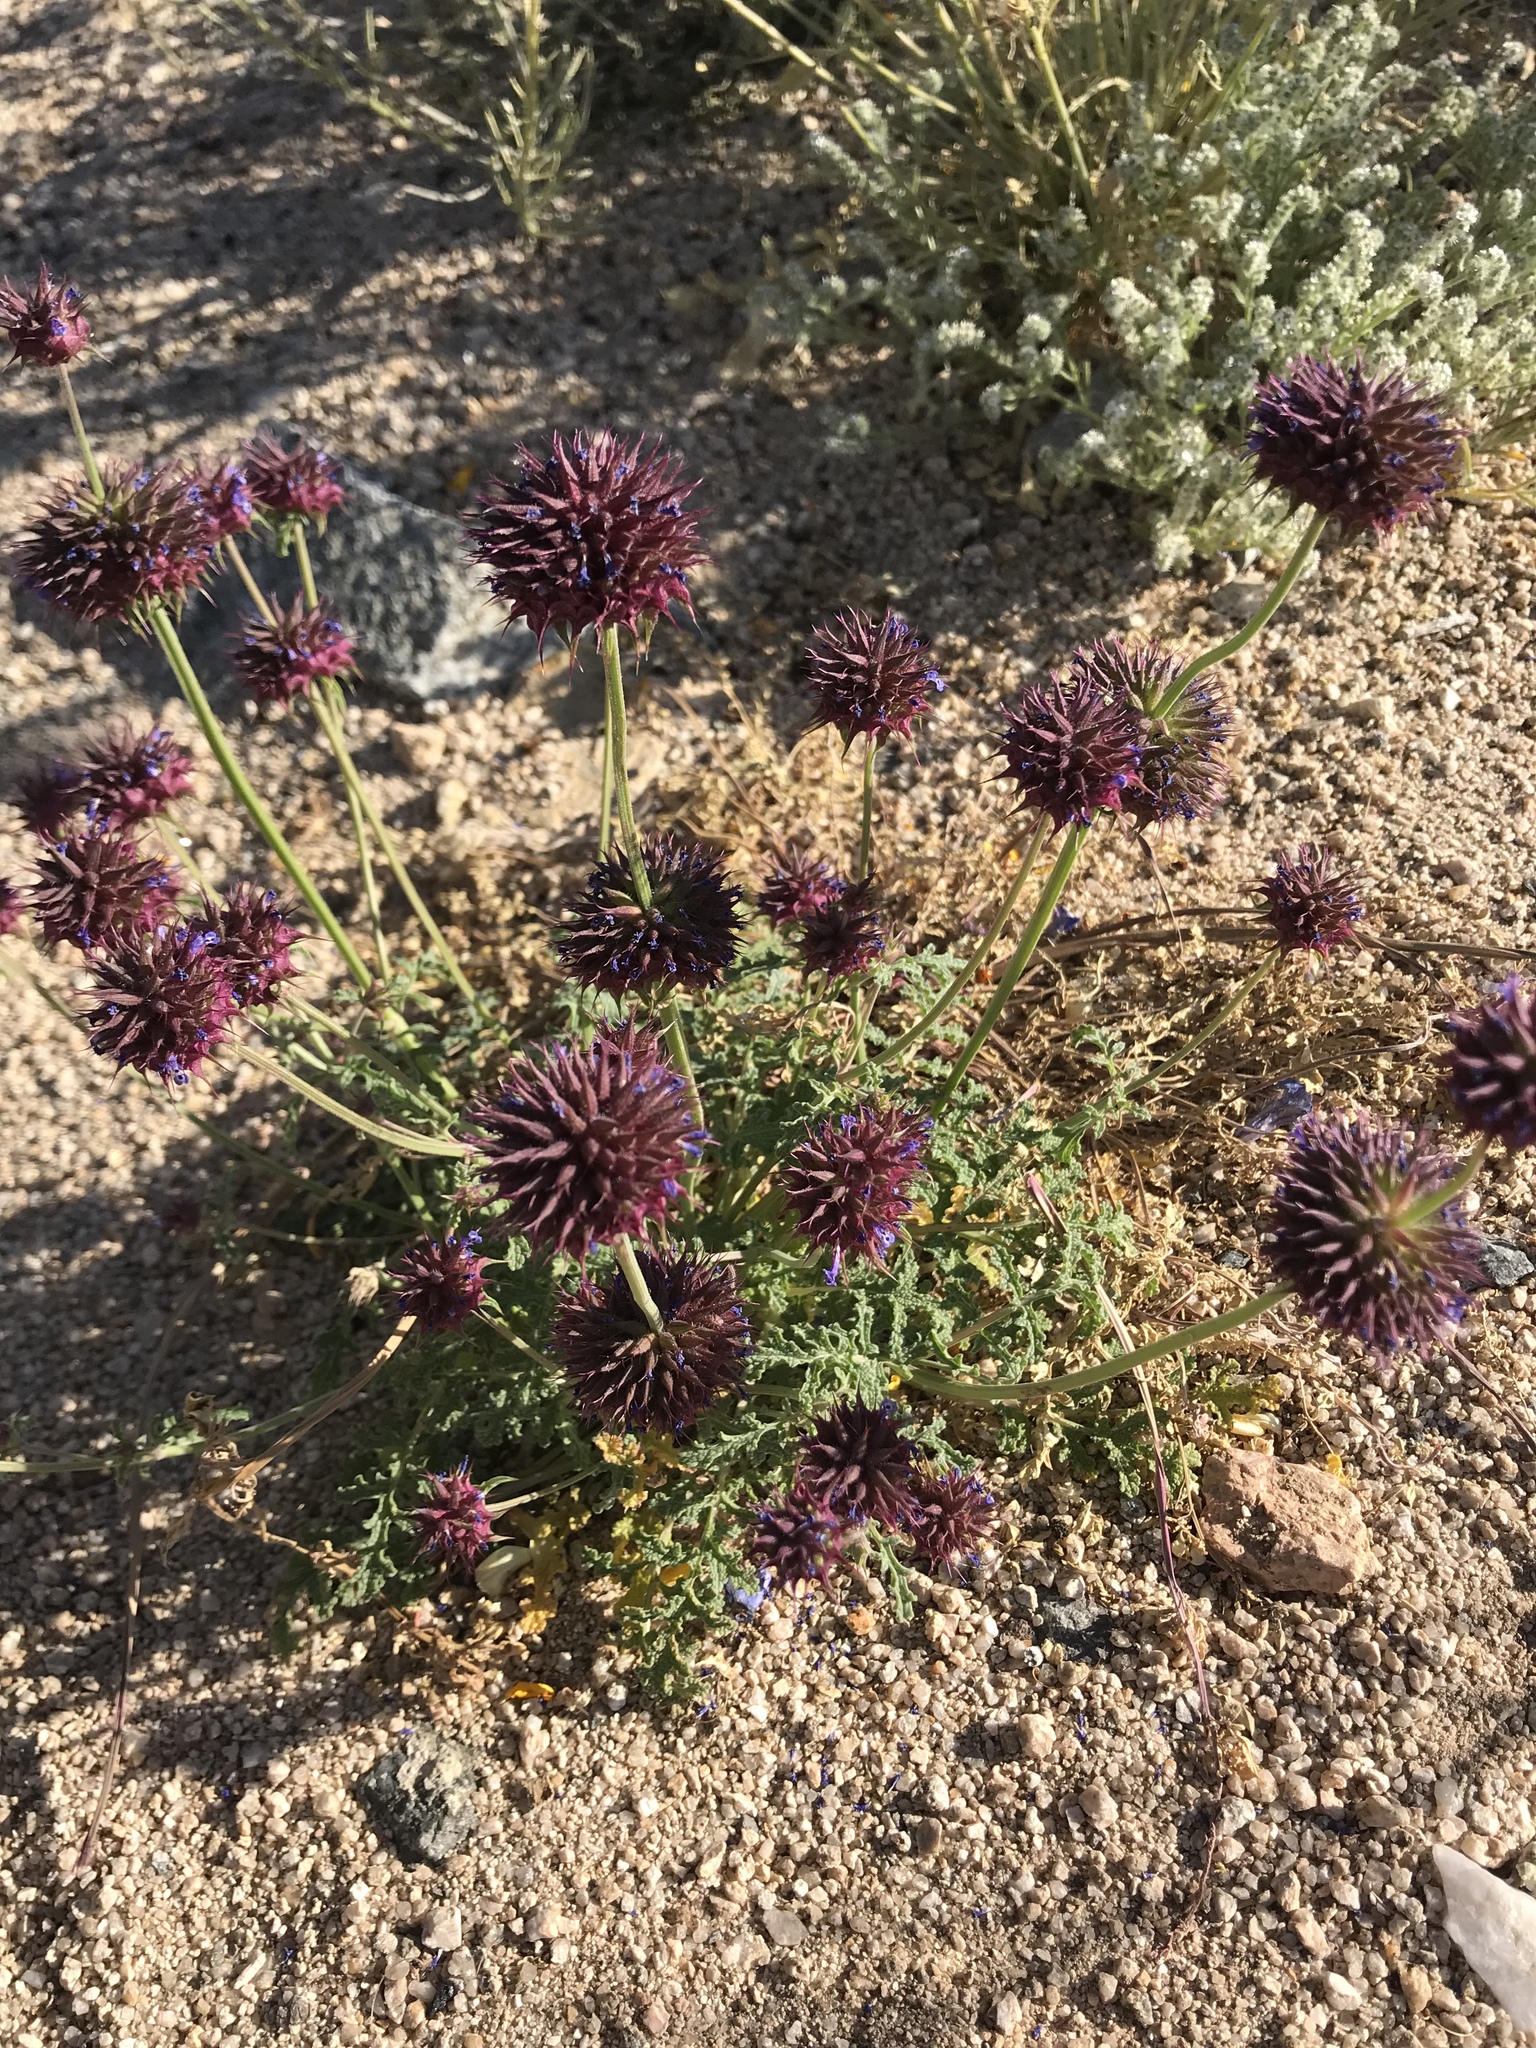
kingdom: Plantae
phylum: Tracheophyta
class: Magnoliopsida
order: Lamiales
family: Lamiaceae
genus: Salvia
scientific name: Salvia columbariae
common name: Chia
